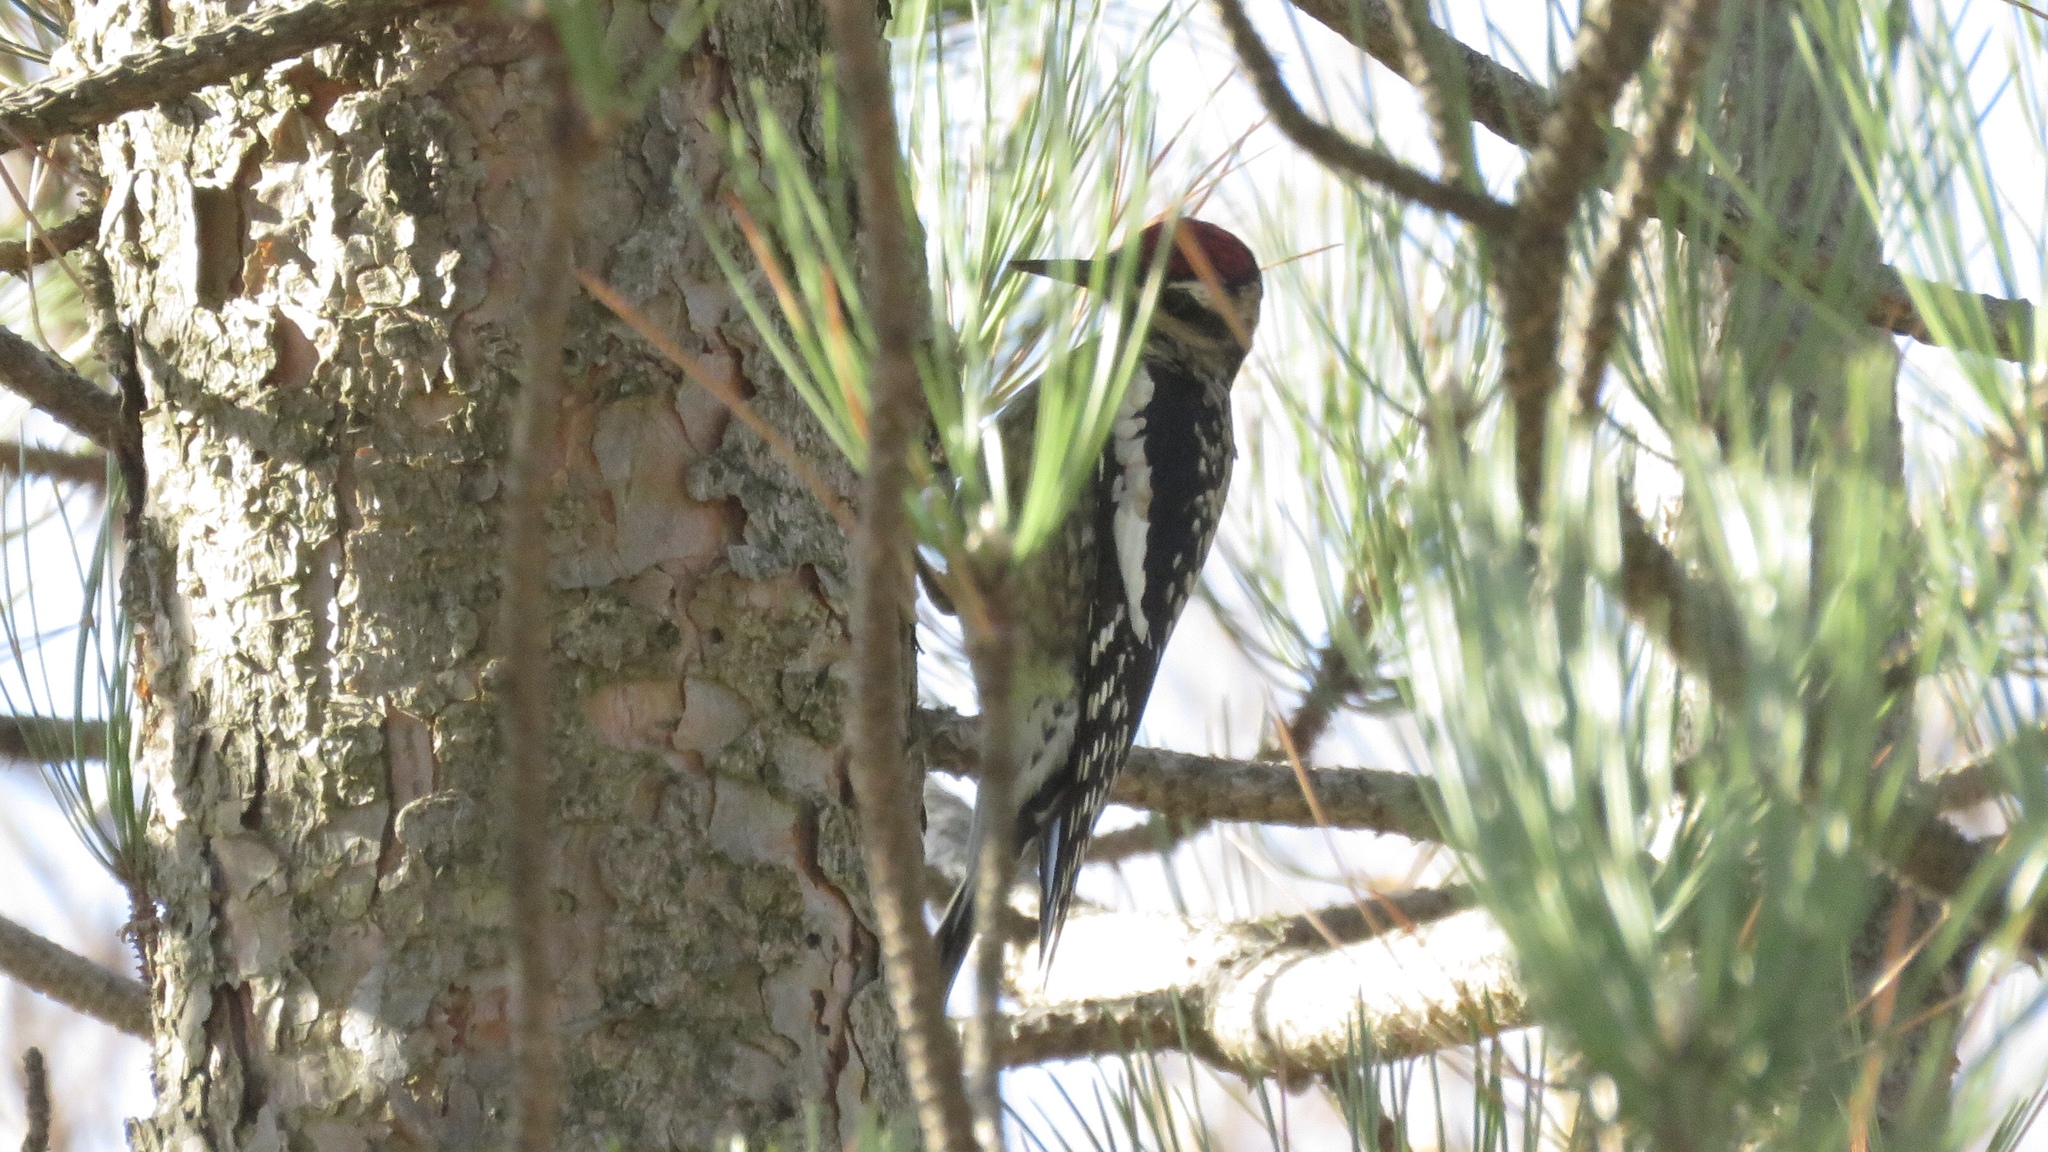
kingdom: Animalia
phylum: Chordata
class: Aves
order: Piciformes
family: Picidae
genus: Sphyrapicus
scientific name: Sphyrapicus varius
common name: Yellow-bellied sapsucker
